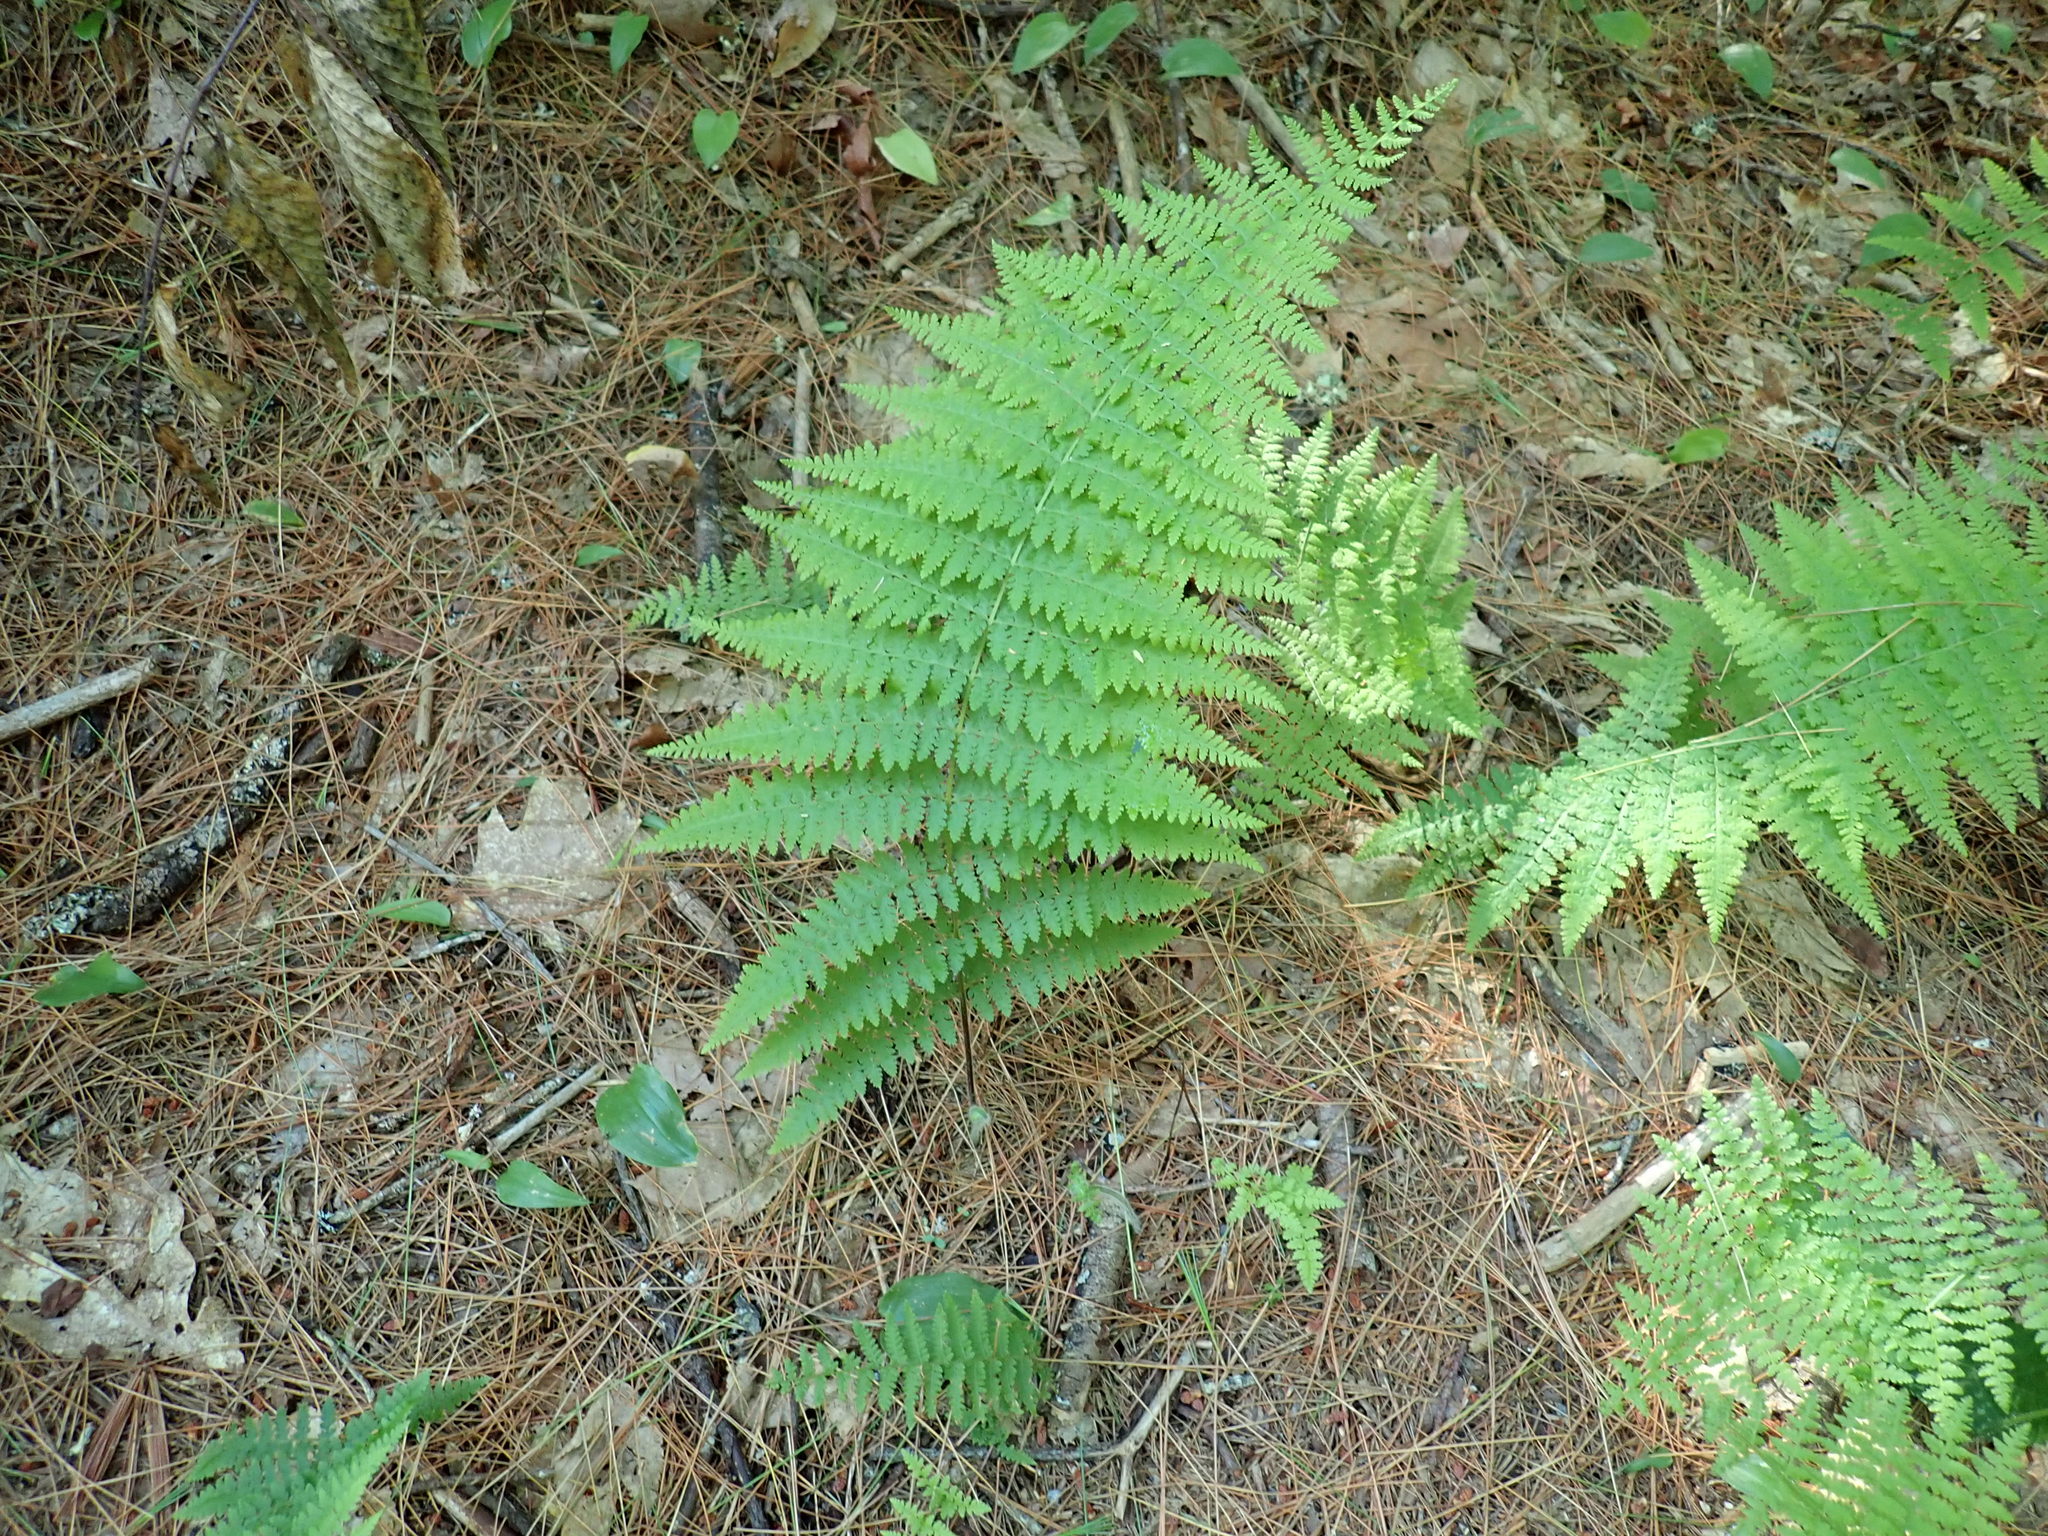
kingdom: Plantae
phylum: Tracheophyta
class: Polypodiopsida
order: Polypodiales
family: Dennstaedtiaceae
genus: Sitobolium
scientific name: Sitobolium punctilobum
